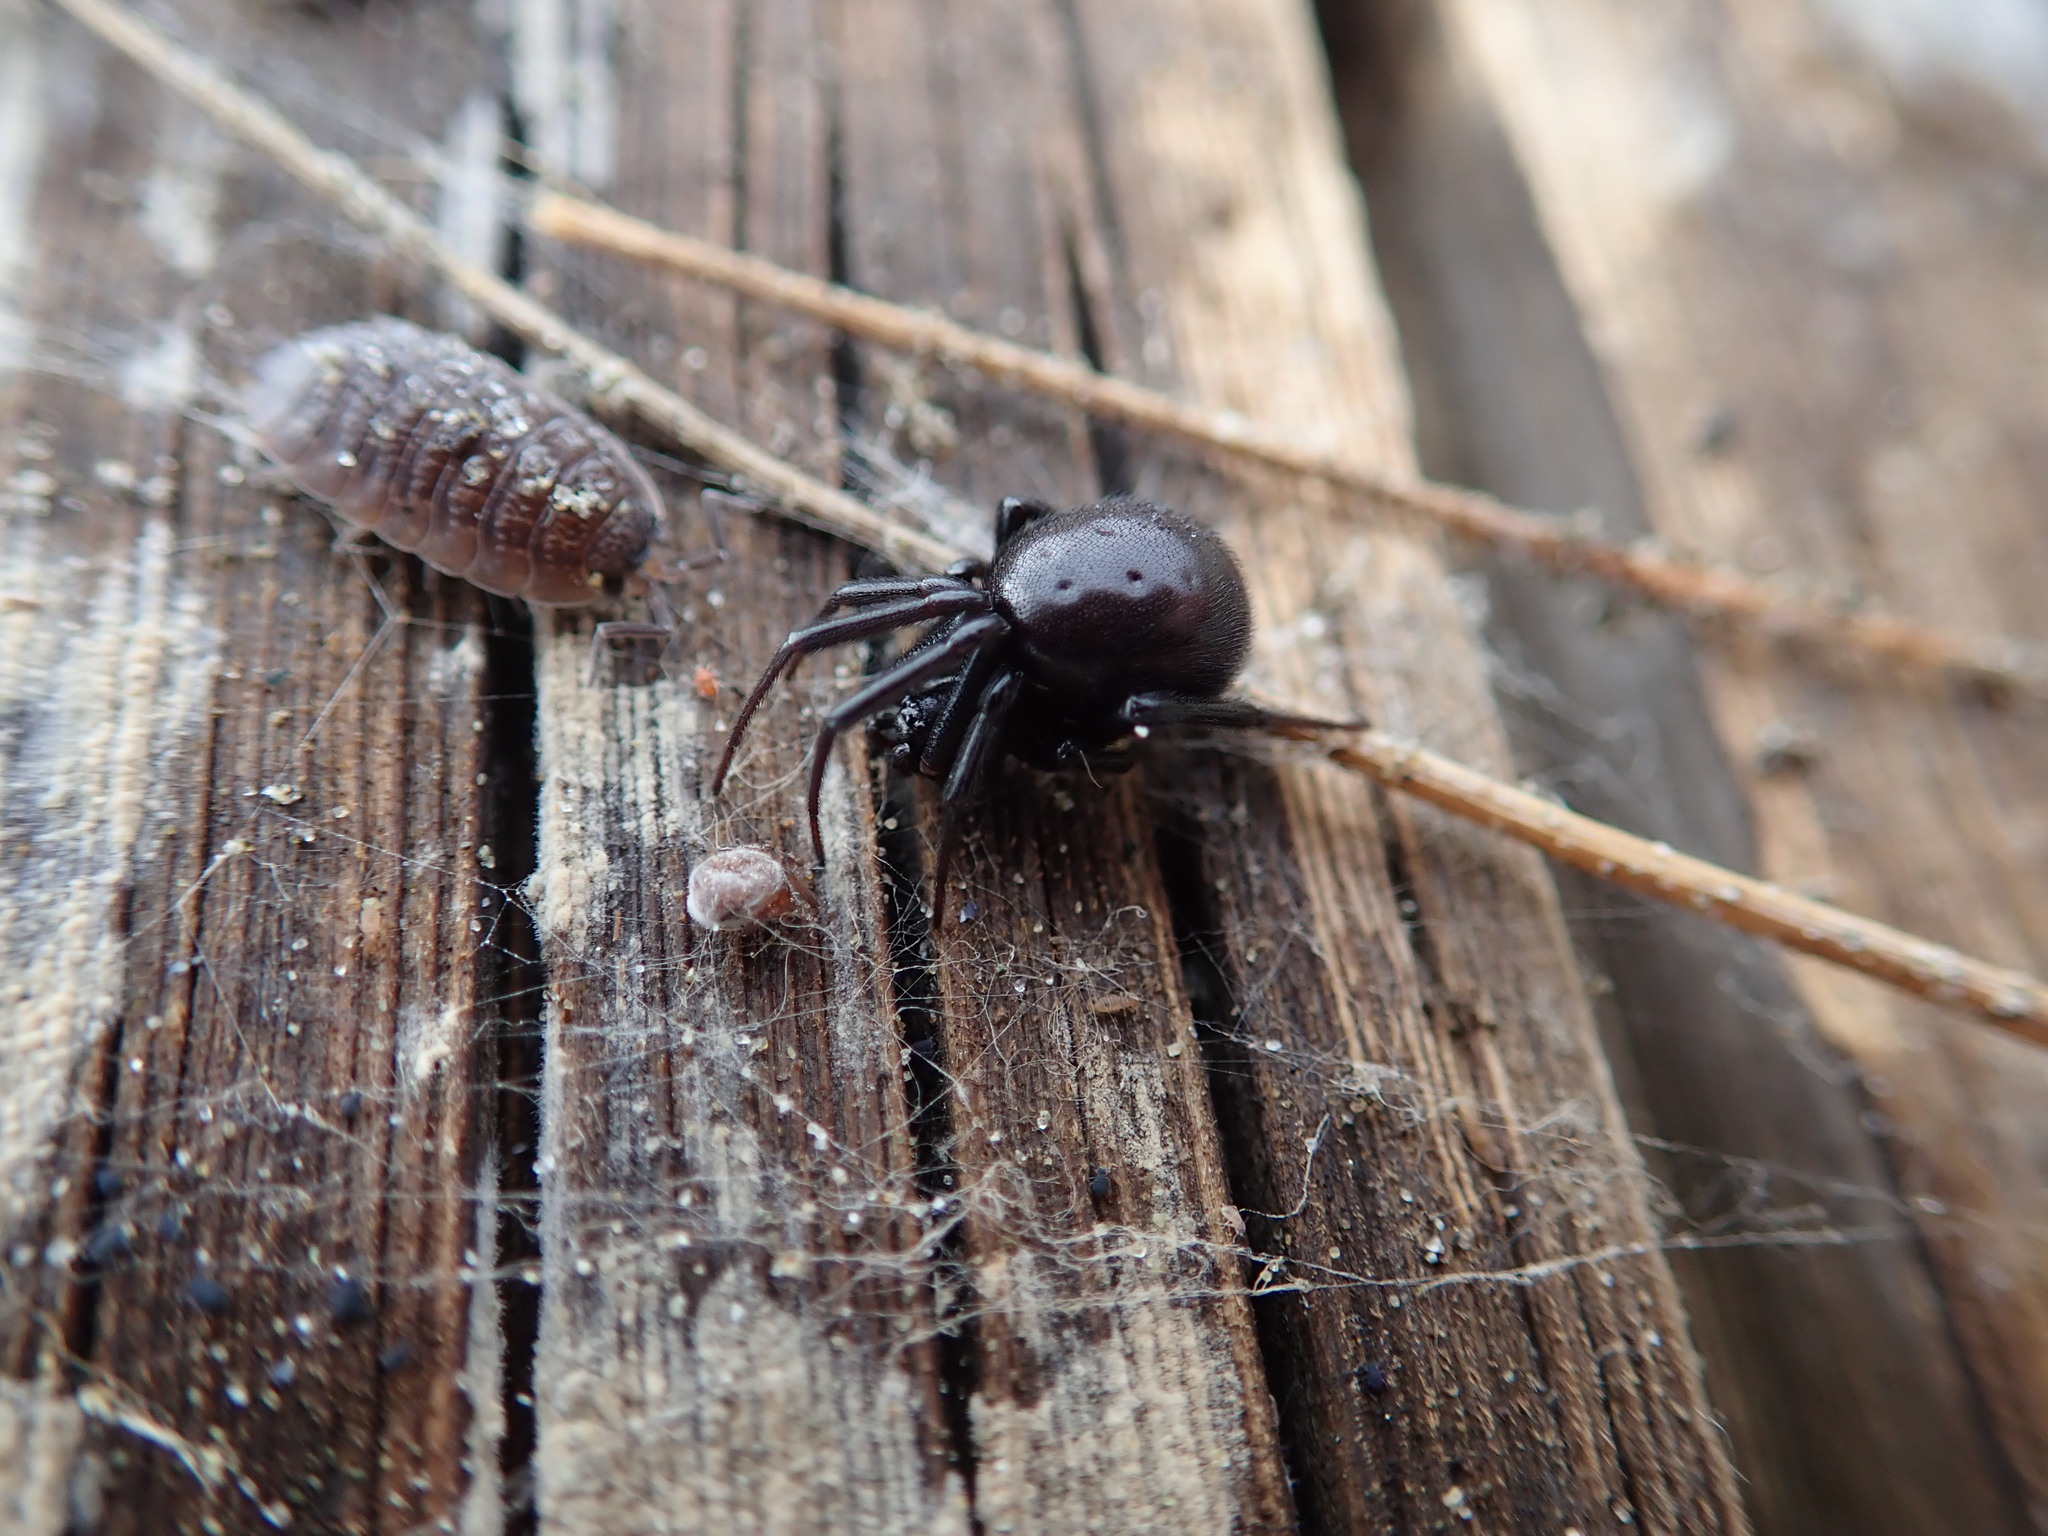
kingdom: Animalia
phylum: Arthropoda
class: Arachnida
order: Araneae
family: Theridiidae
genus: Steatoda
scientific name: Steatoda capensis
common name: Cobweb weaver
